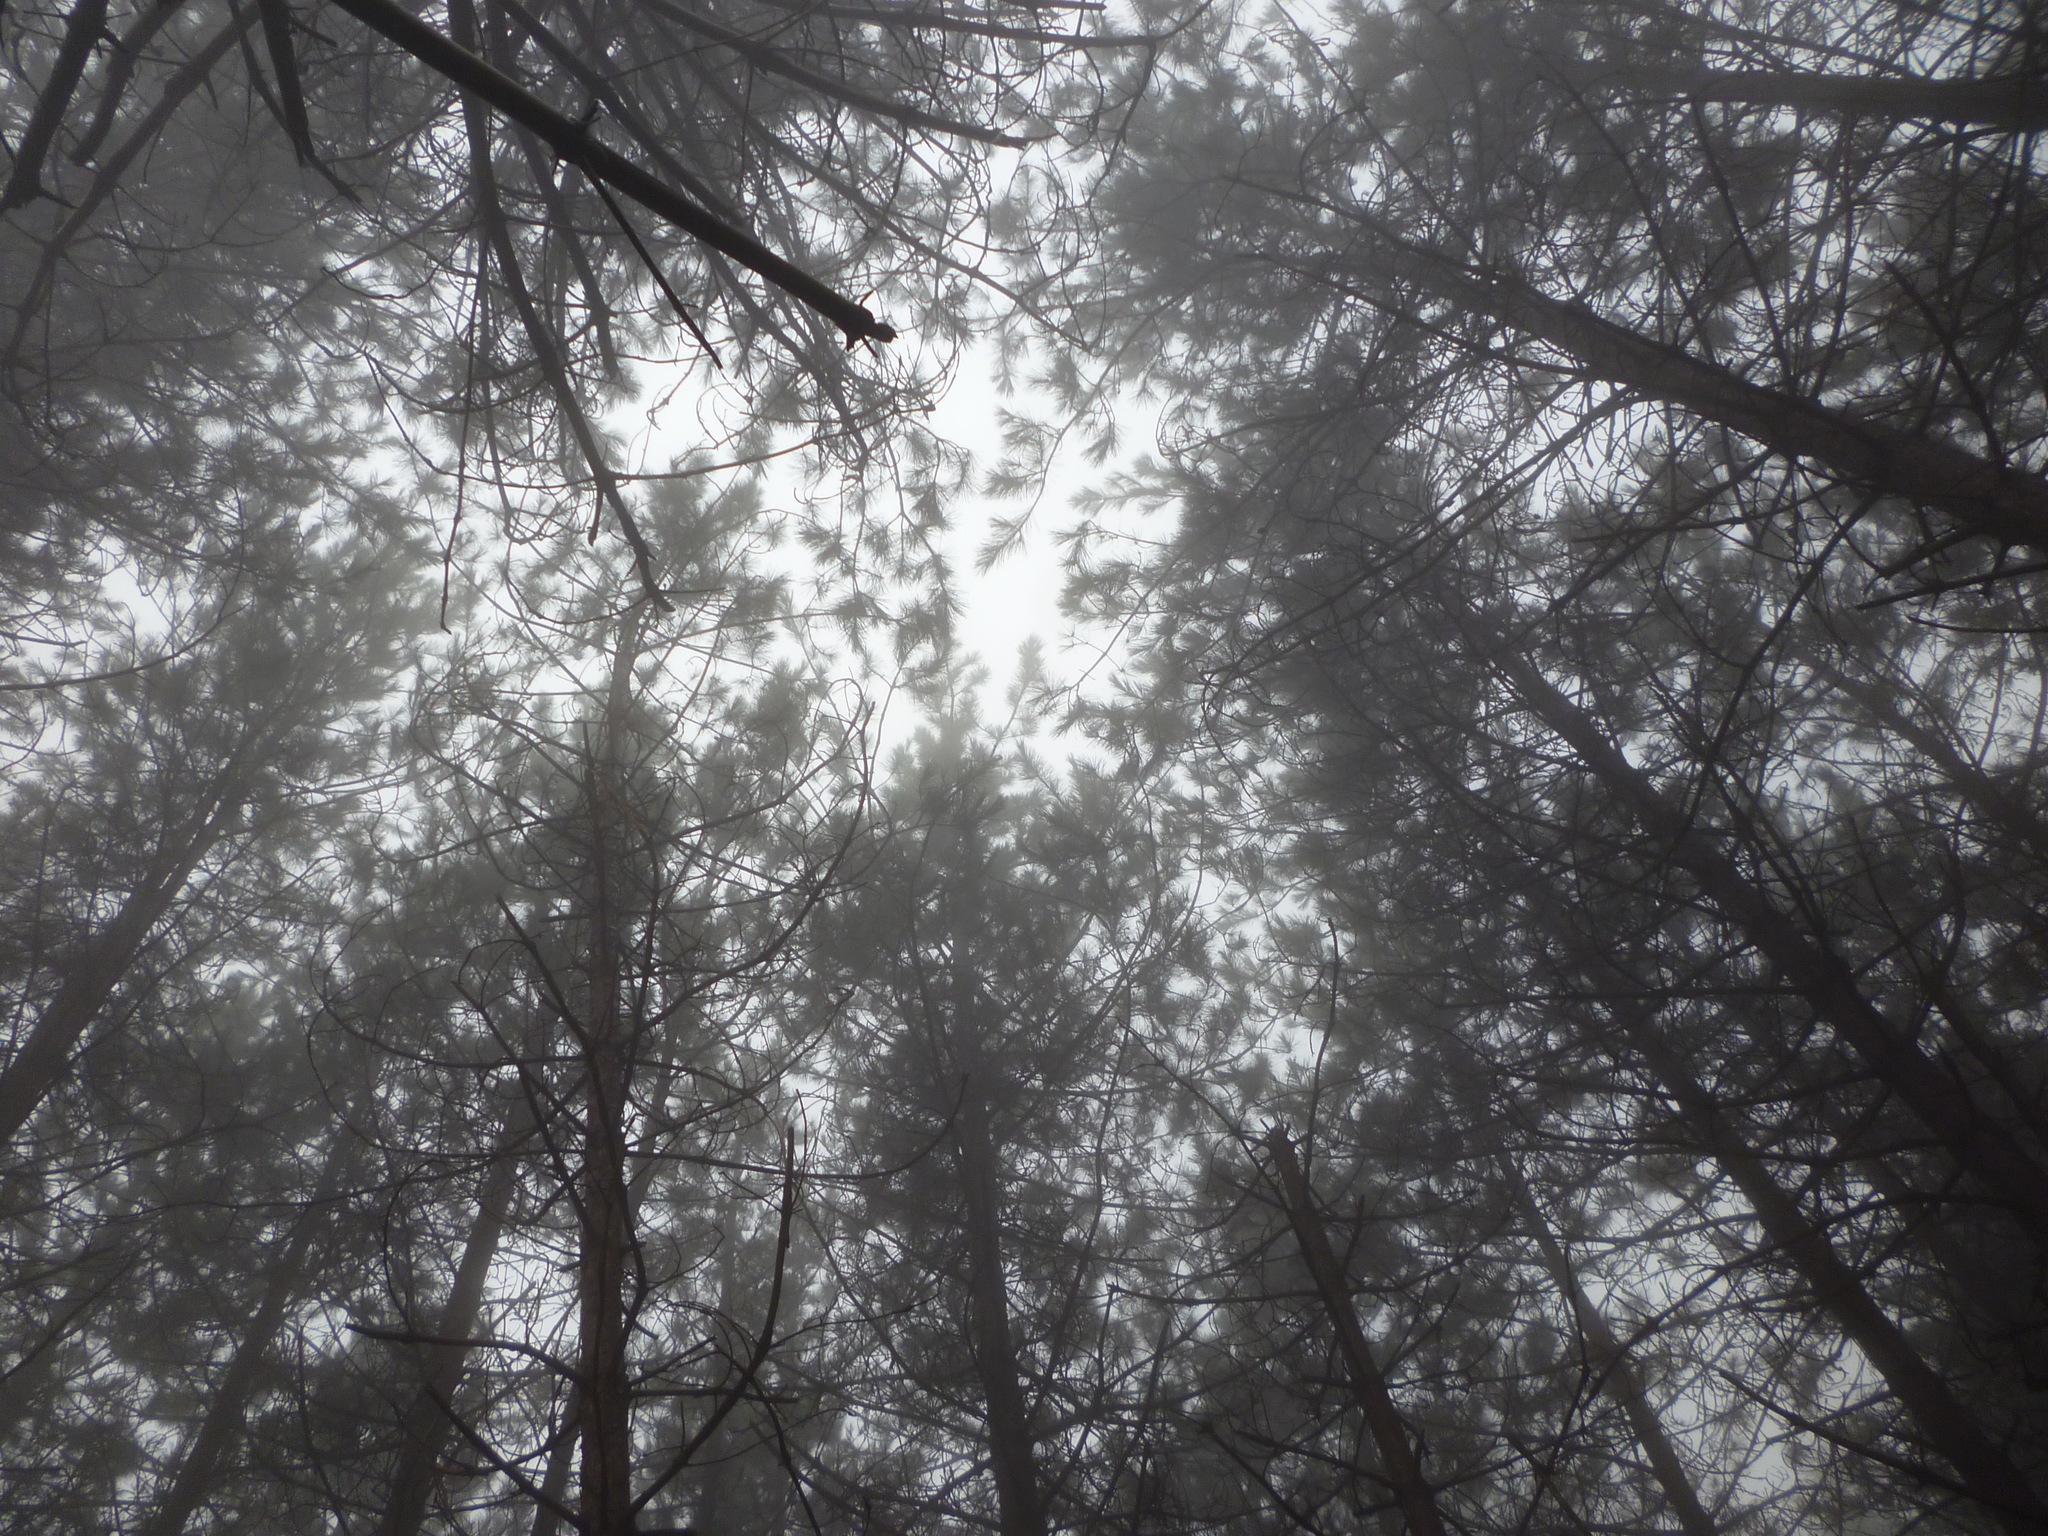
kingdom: Plantae
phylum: Tracheophyta
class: Pinopsida
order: Pinales
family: Pinaceae
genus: Pinus
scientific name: Pinus strobus
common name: Weymouth pine
